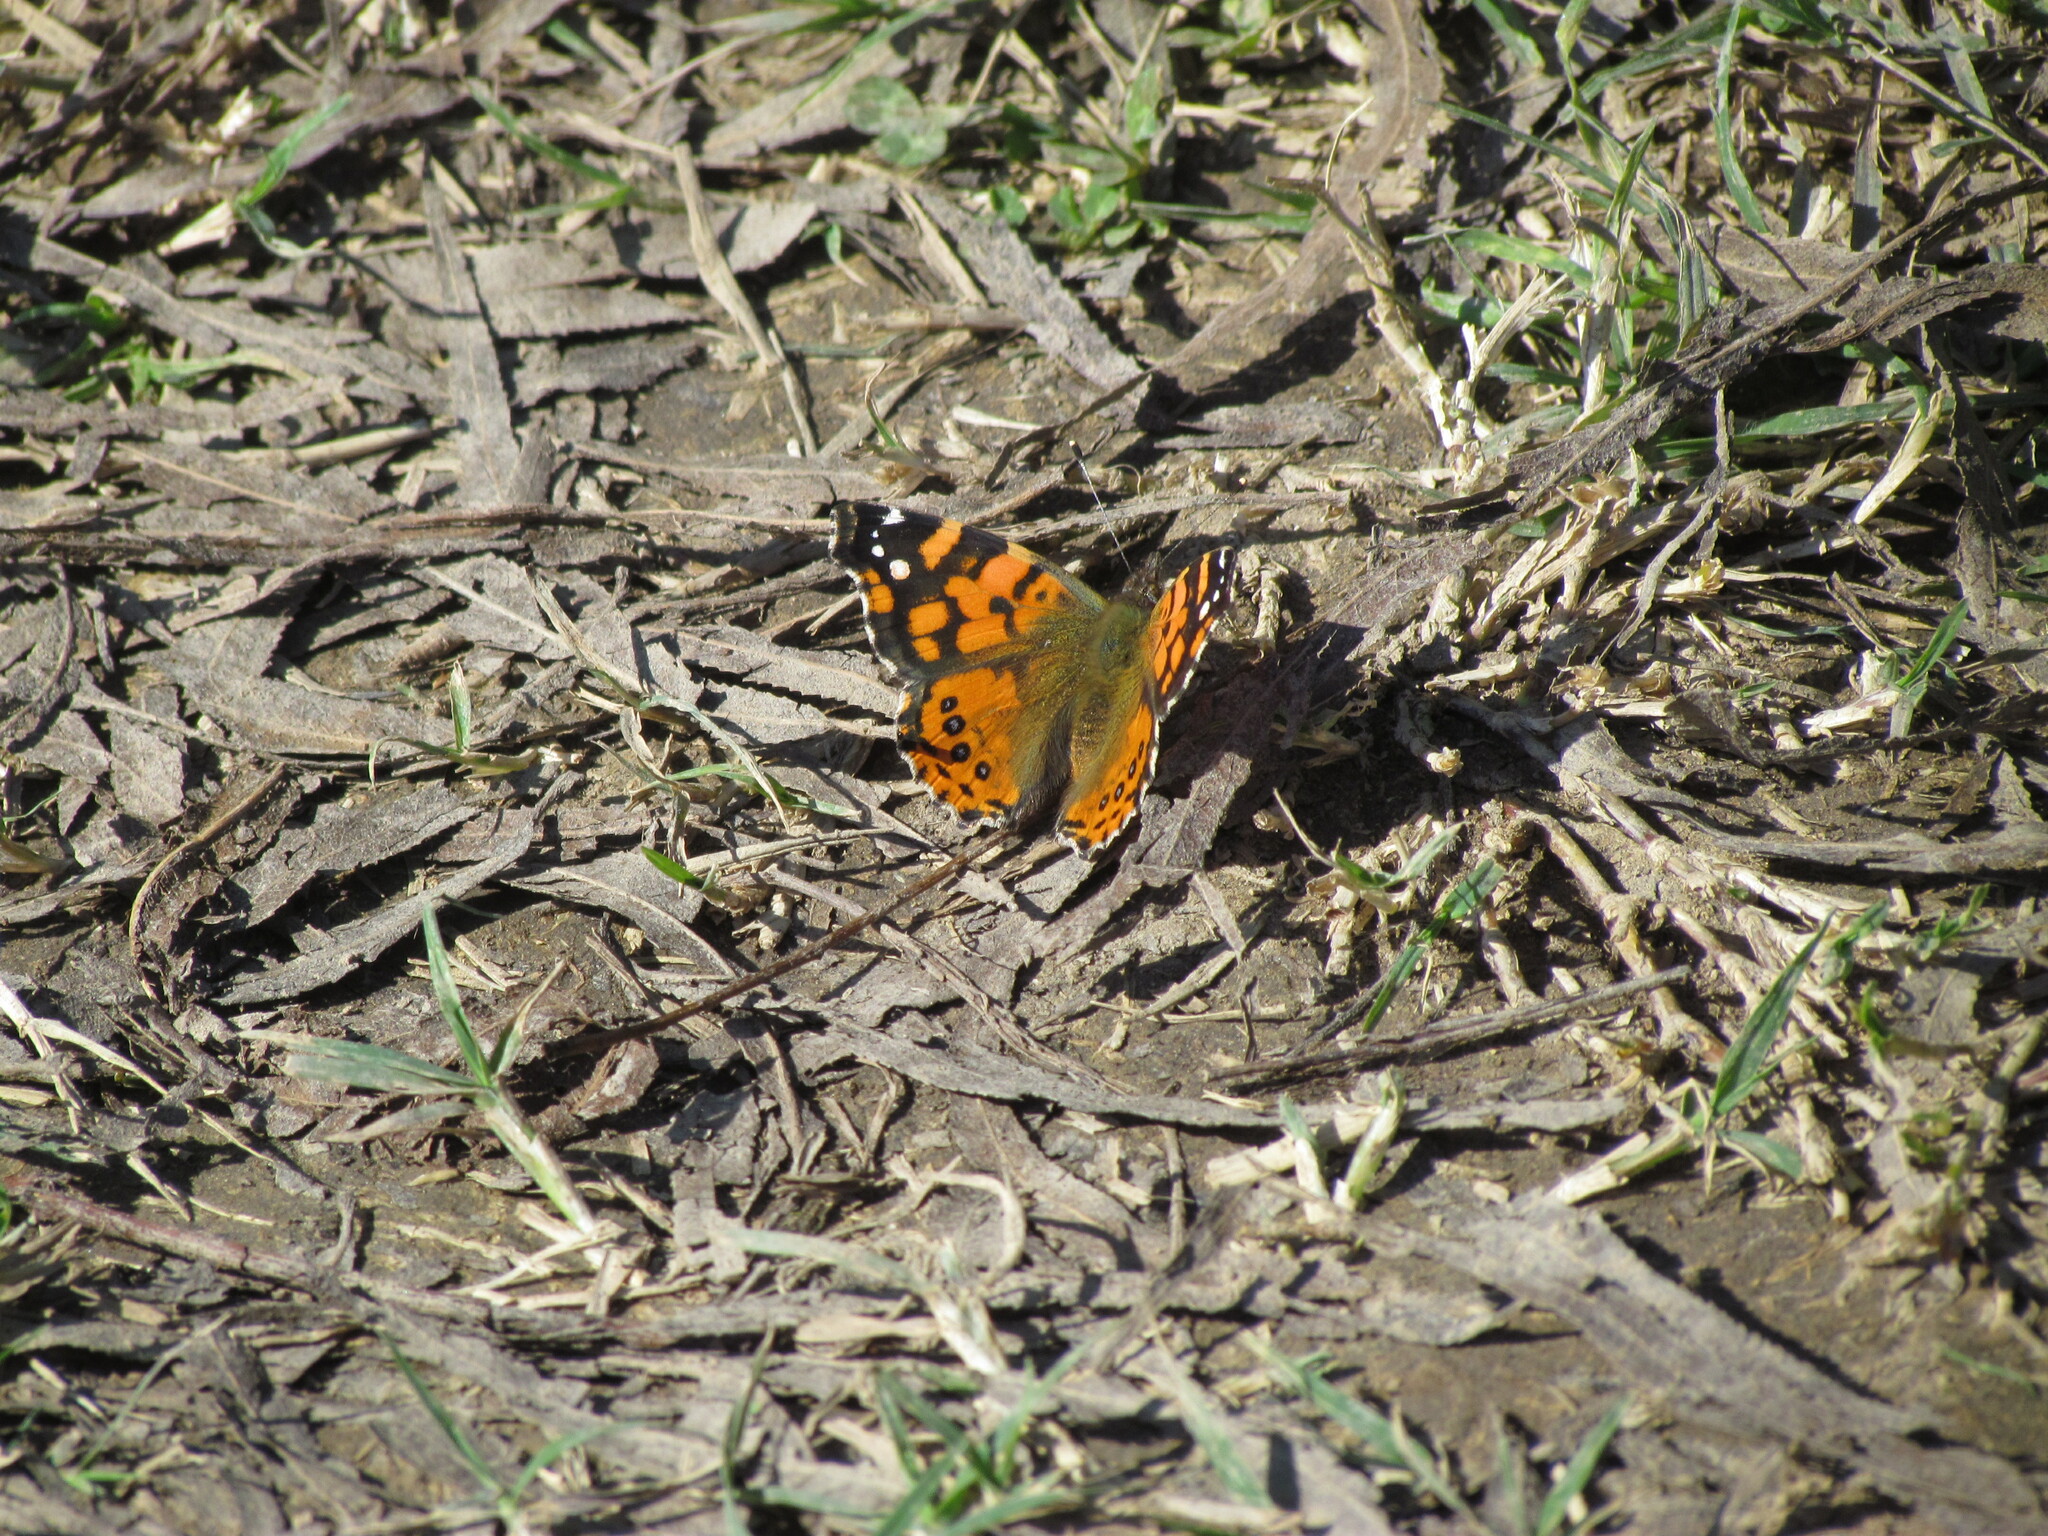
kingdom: Animalia
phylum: Arthropoda
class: Insecta
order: Lepidoptera
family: Nymphalidae
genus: Vanessa
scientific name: Vanessa carye
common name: Subtropical lady
